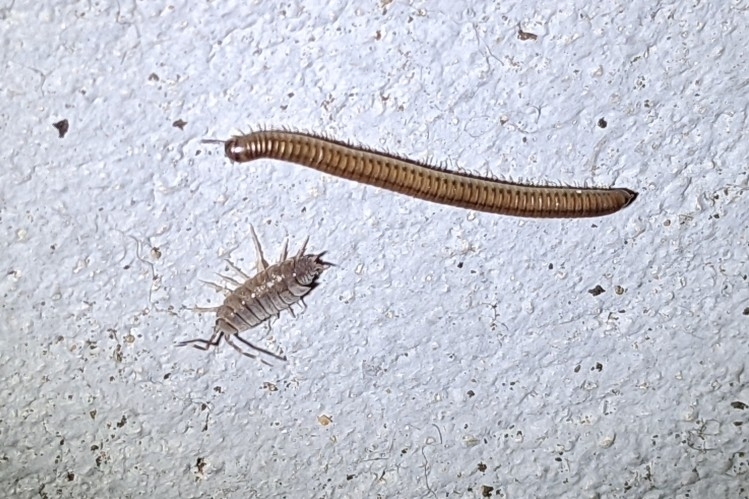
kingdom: Animalia
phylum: Arthropoda
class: Diplopoda
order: Julida
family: Julidae
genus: Cylindroiulus
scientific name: Cylindroiulus punctatus
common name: Blunt-tailed millipede
